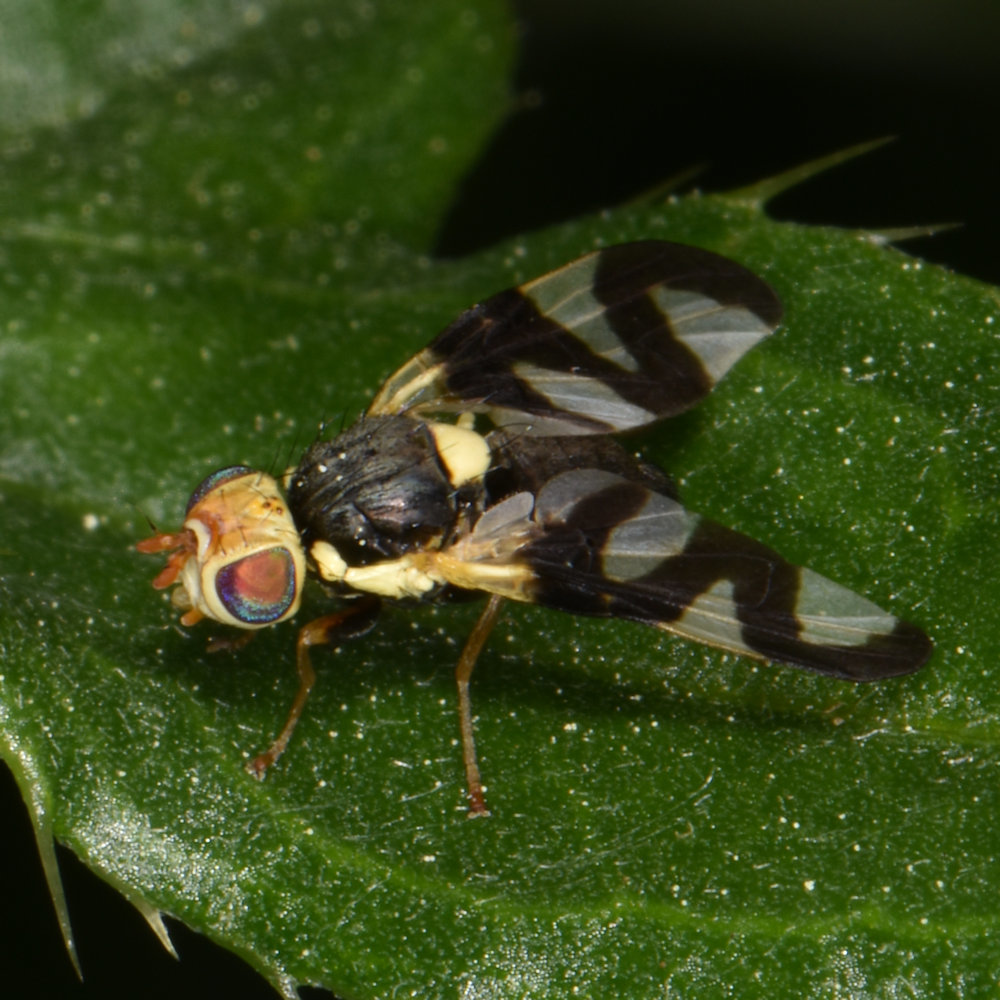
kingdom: Animalia
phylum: Arthropoda
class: Insecta
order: Diptera
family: Tephritidae
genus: Urophora
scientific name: Urophora cardui
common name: Fruit fly
